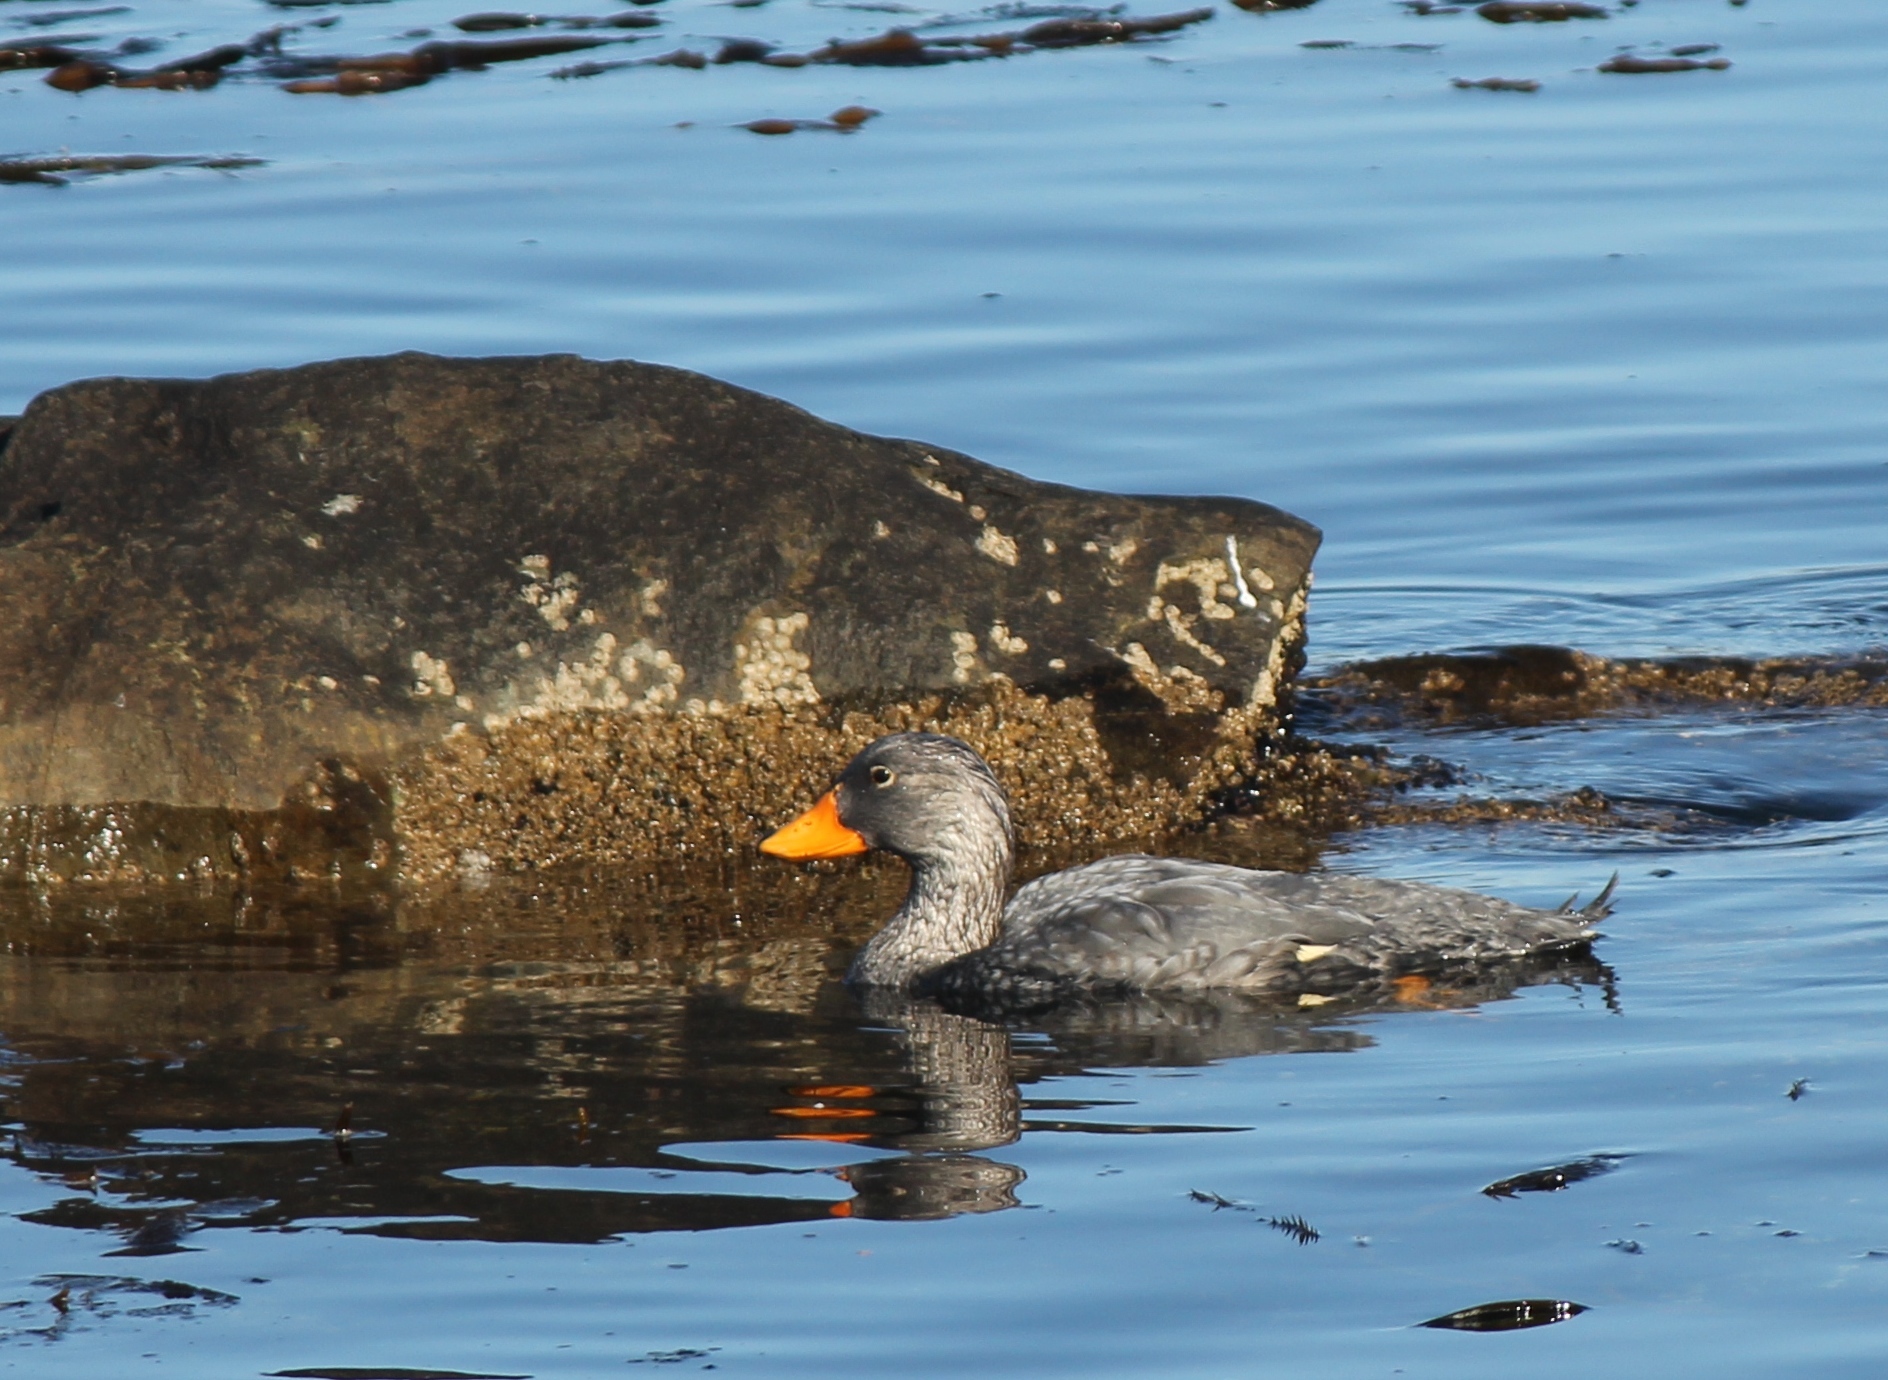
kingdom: Animalia
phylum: Chordata
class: Aves
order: Anseriformes
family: Anatidae
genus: Tachyeres
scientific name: Tachyeres pteneres
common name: Fuegian steamer duck
